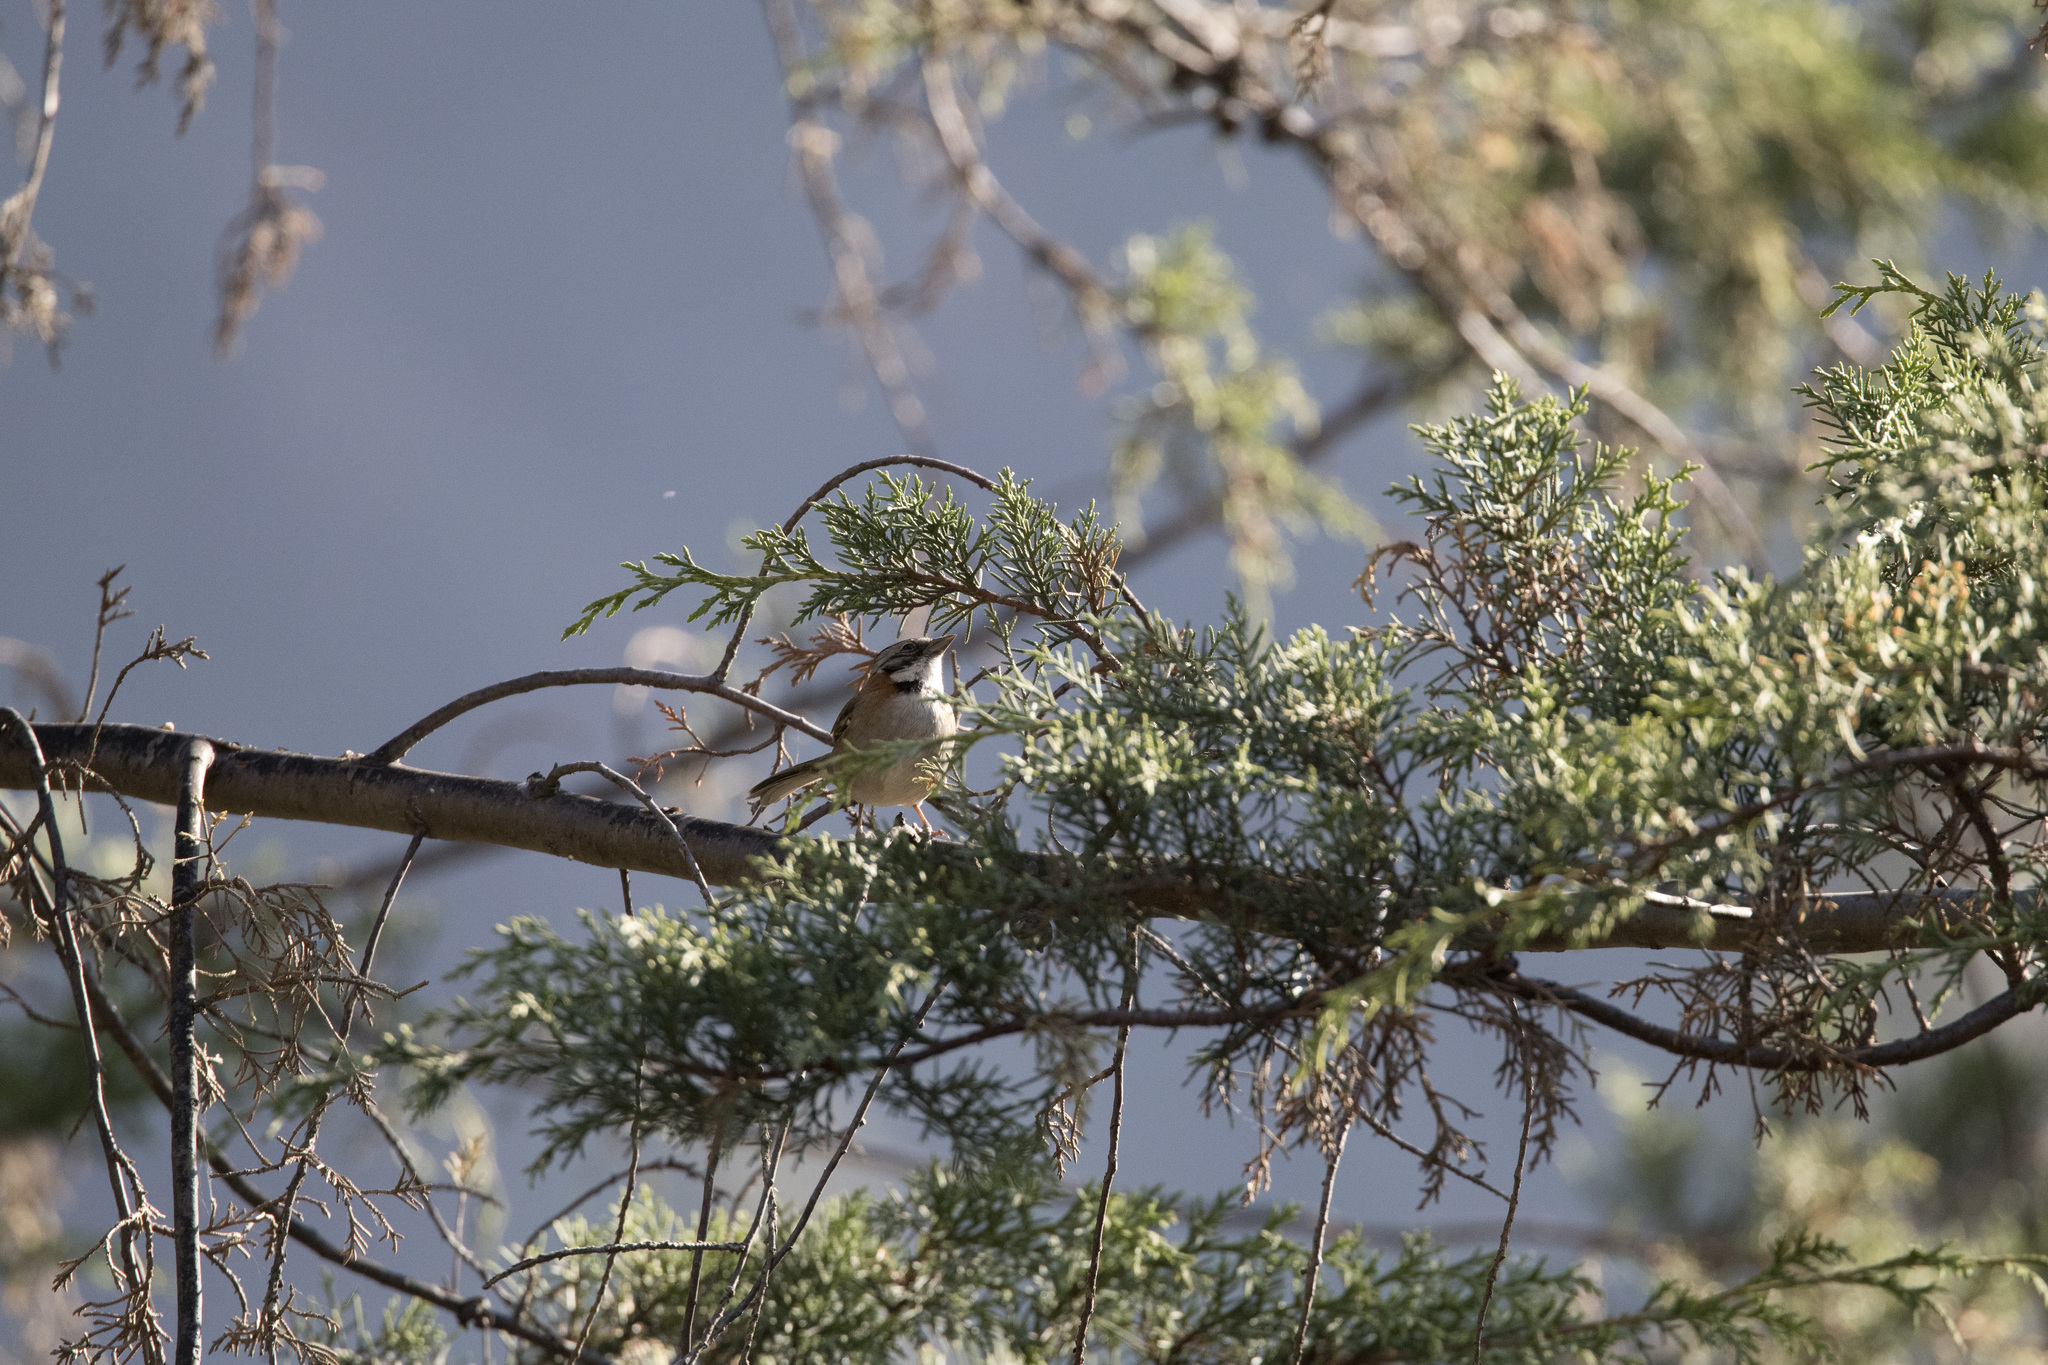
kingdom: Animalia
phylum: Chordata
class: Aves
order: Passeriformes
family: Passerellidae
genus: Zonotrichia
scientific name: Zonotrichia capensis
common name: Rufous-collared sparrow
